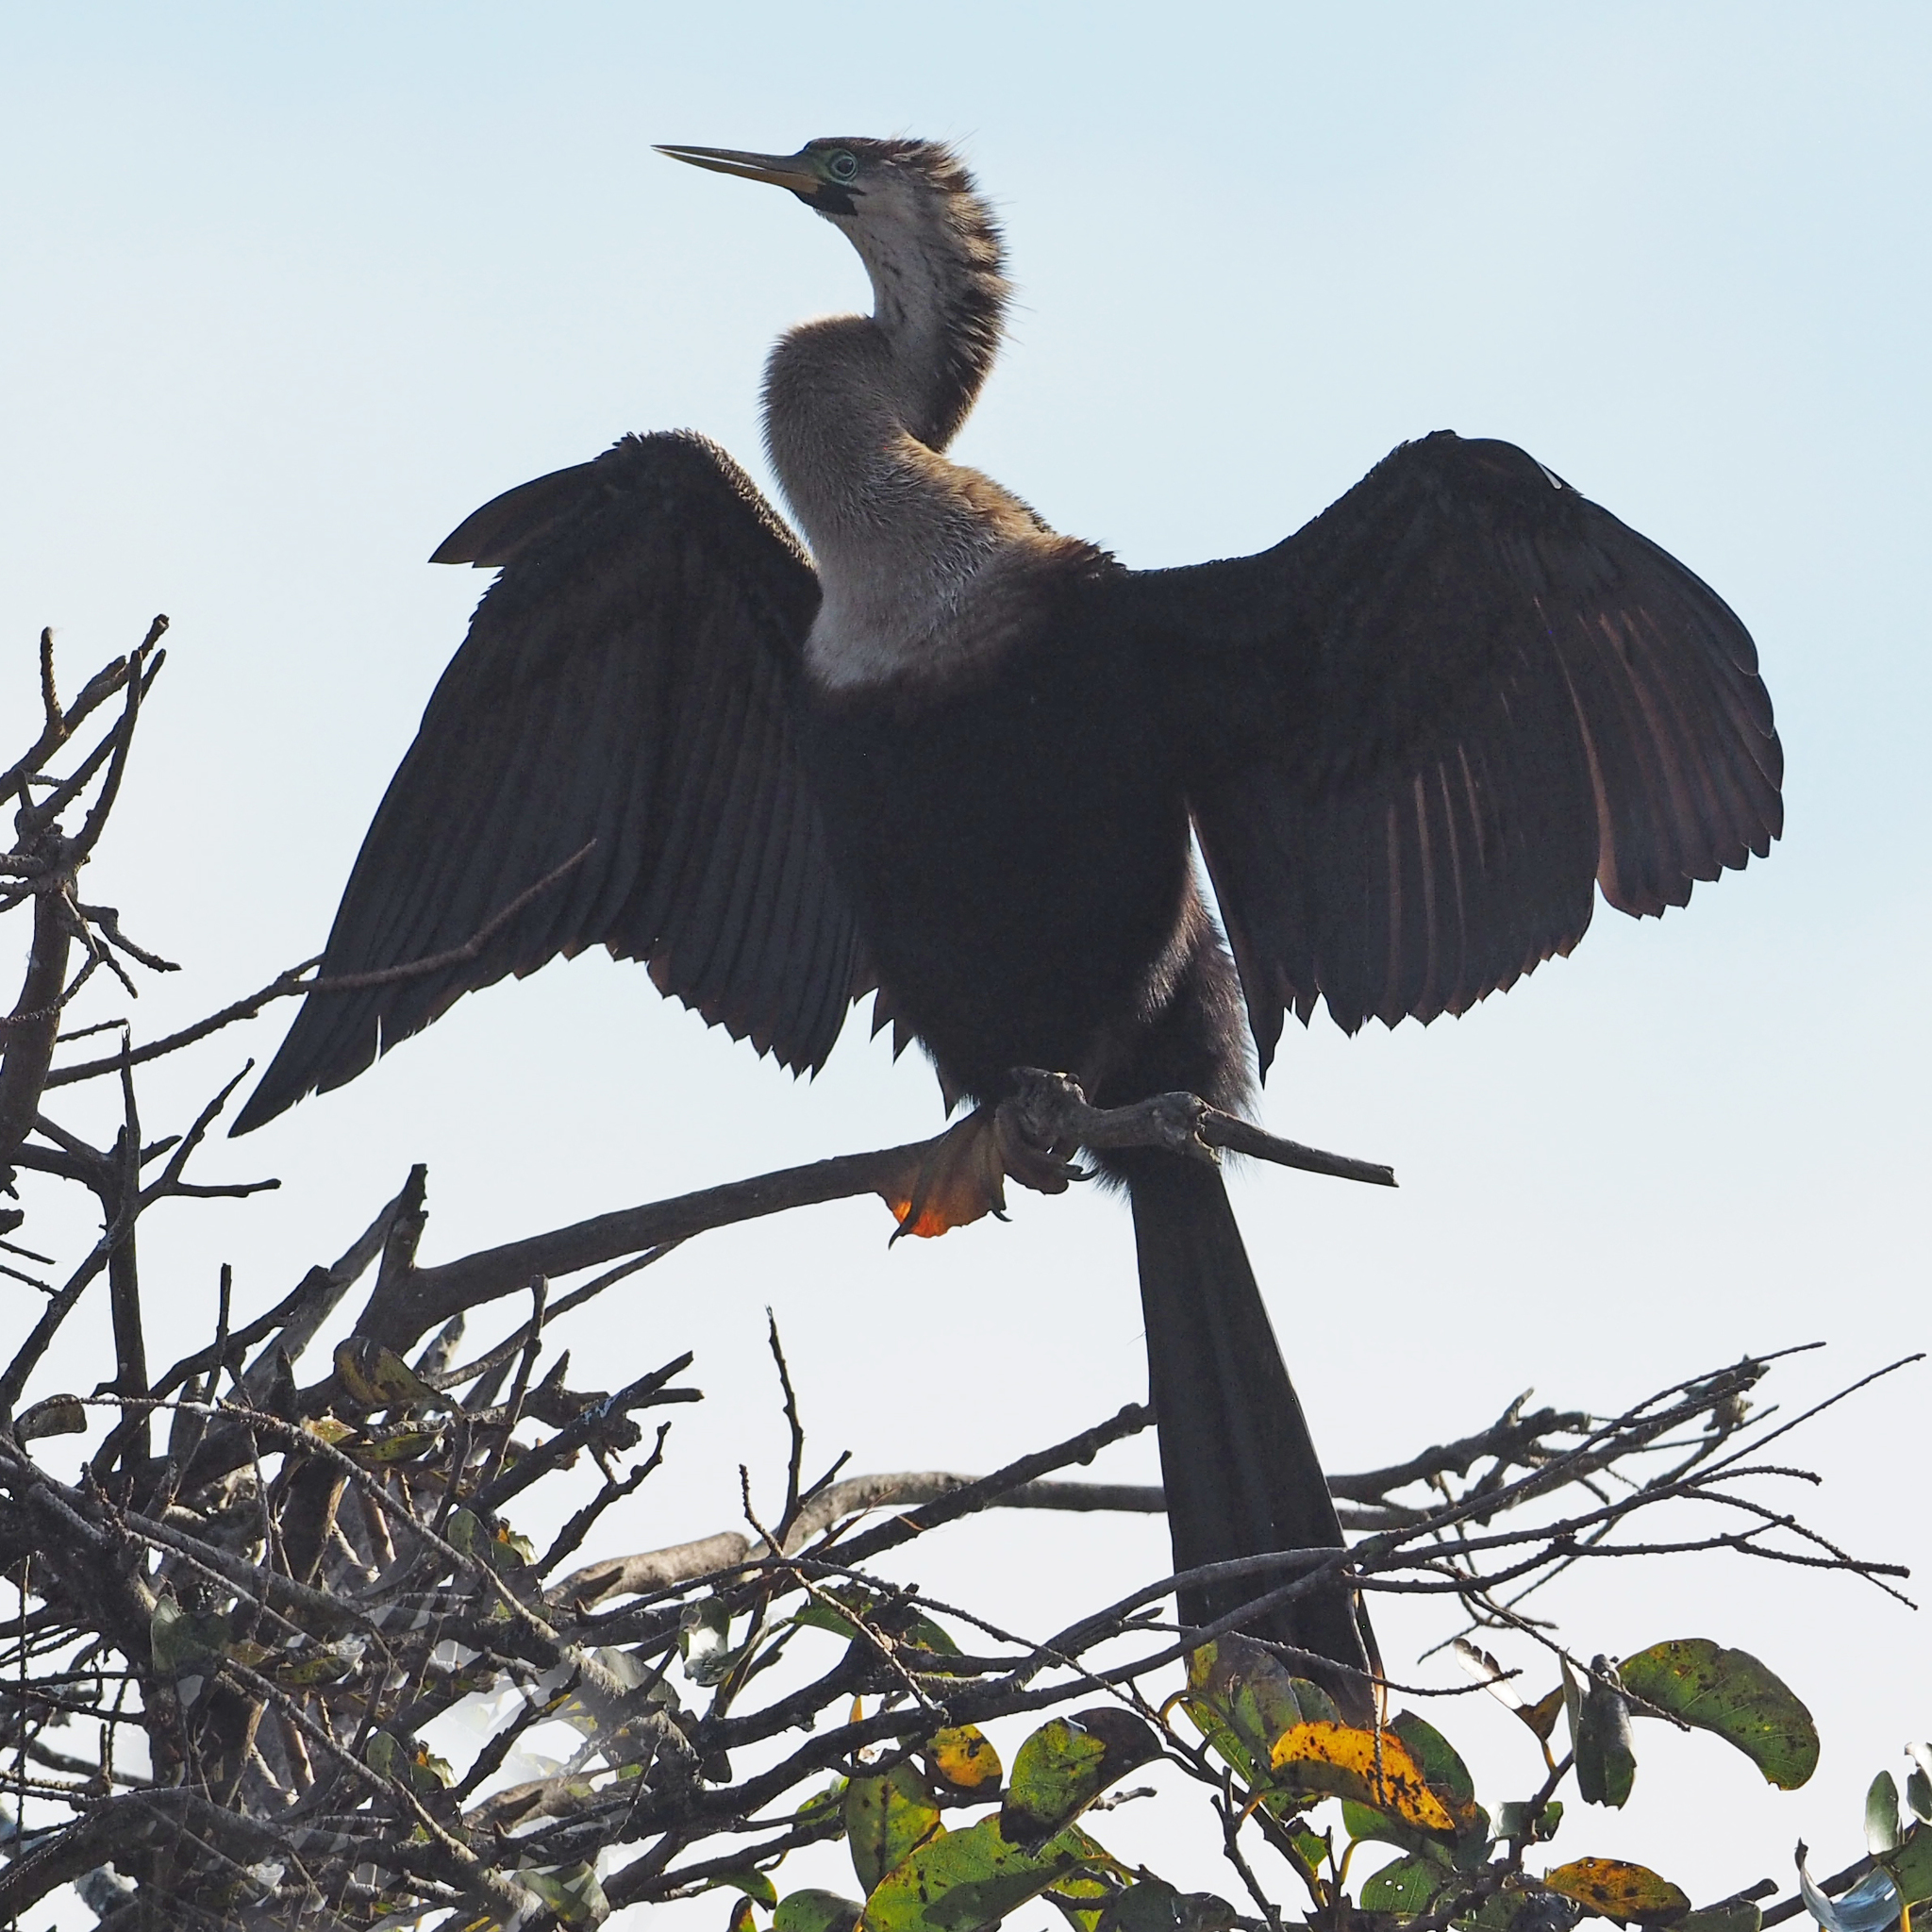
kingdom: Animalia
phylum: Chordata
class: Aves
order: Suliformes
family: Anhingidae
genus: Anhinga
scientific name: Anhinga anhinga
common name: Anhinga
